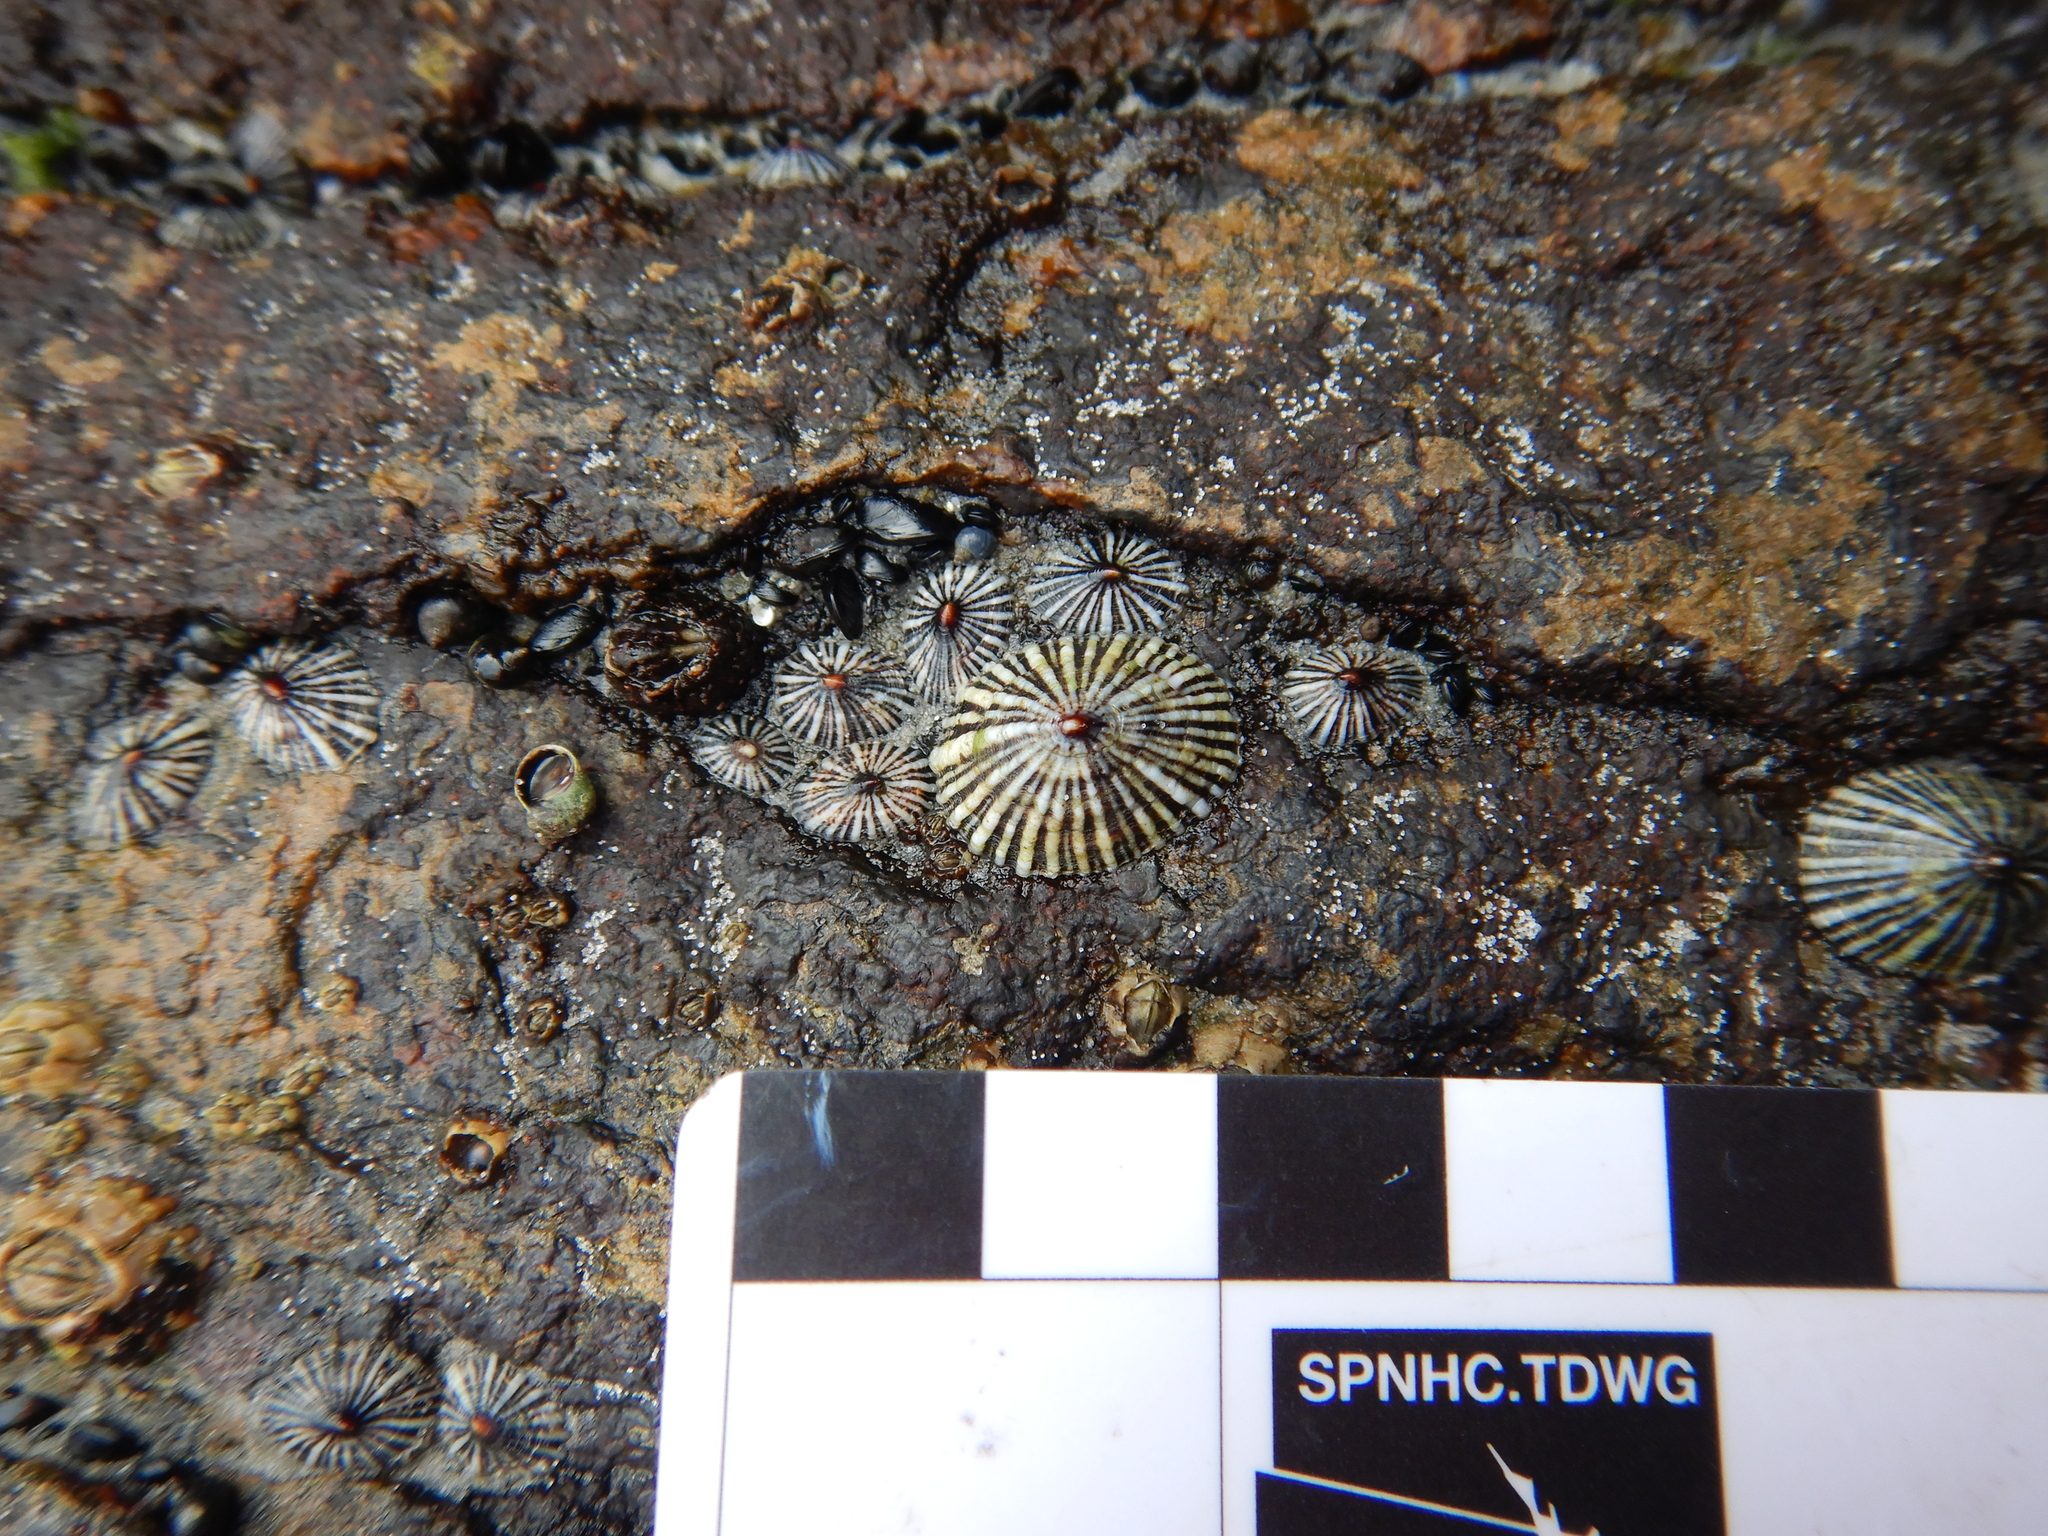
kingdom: Animalia
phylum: Mollusca
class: Gastropoda
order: Siphonariida
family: Siphonariidae
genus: Siphonaria
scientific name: Siphonaria funiculata
